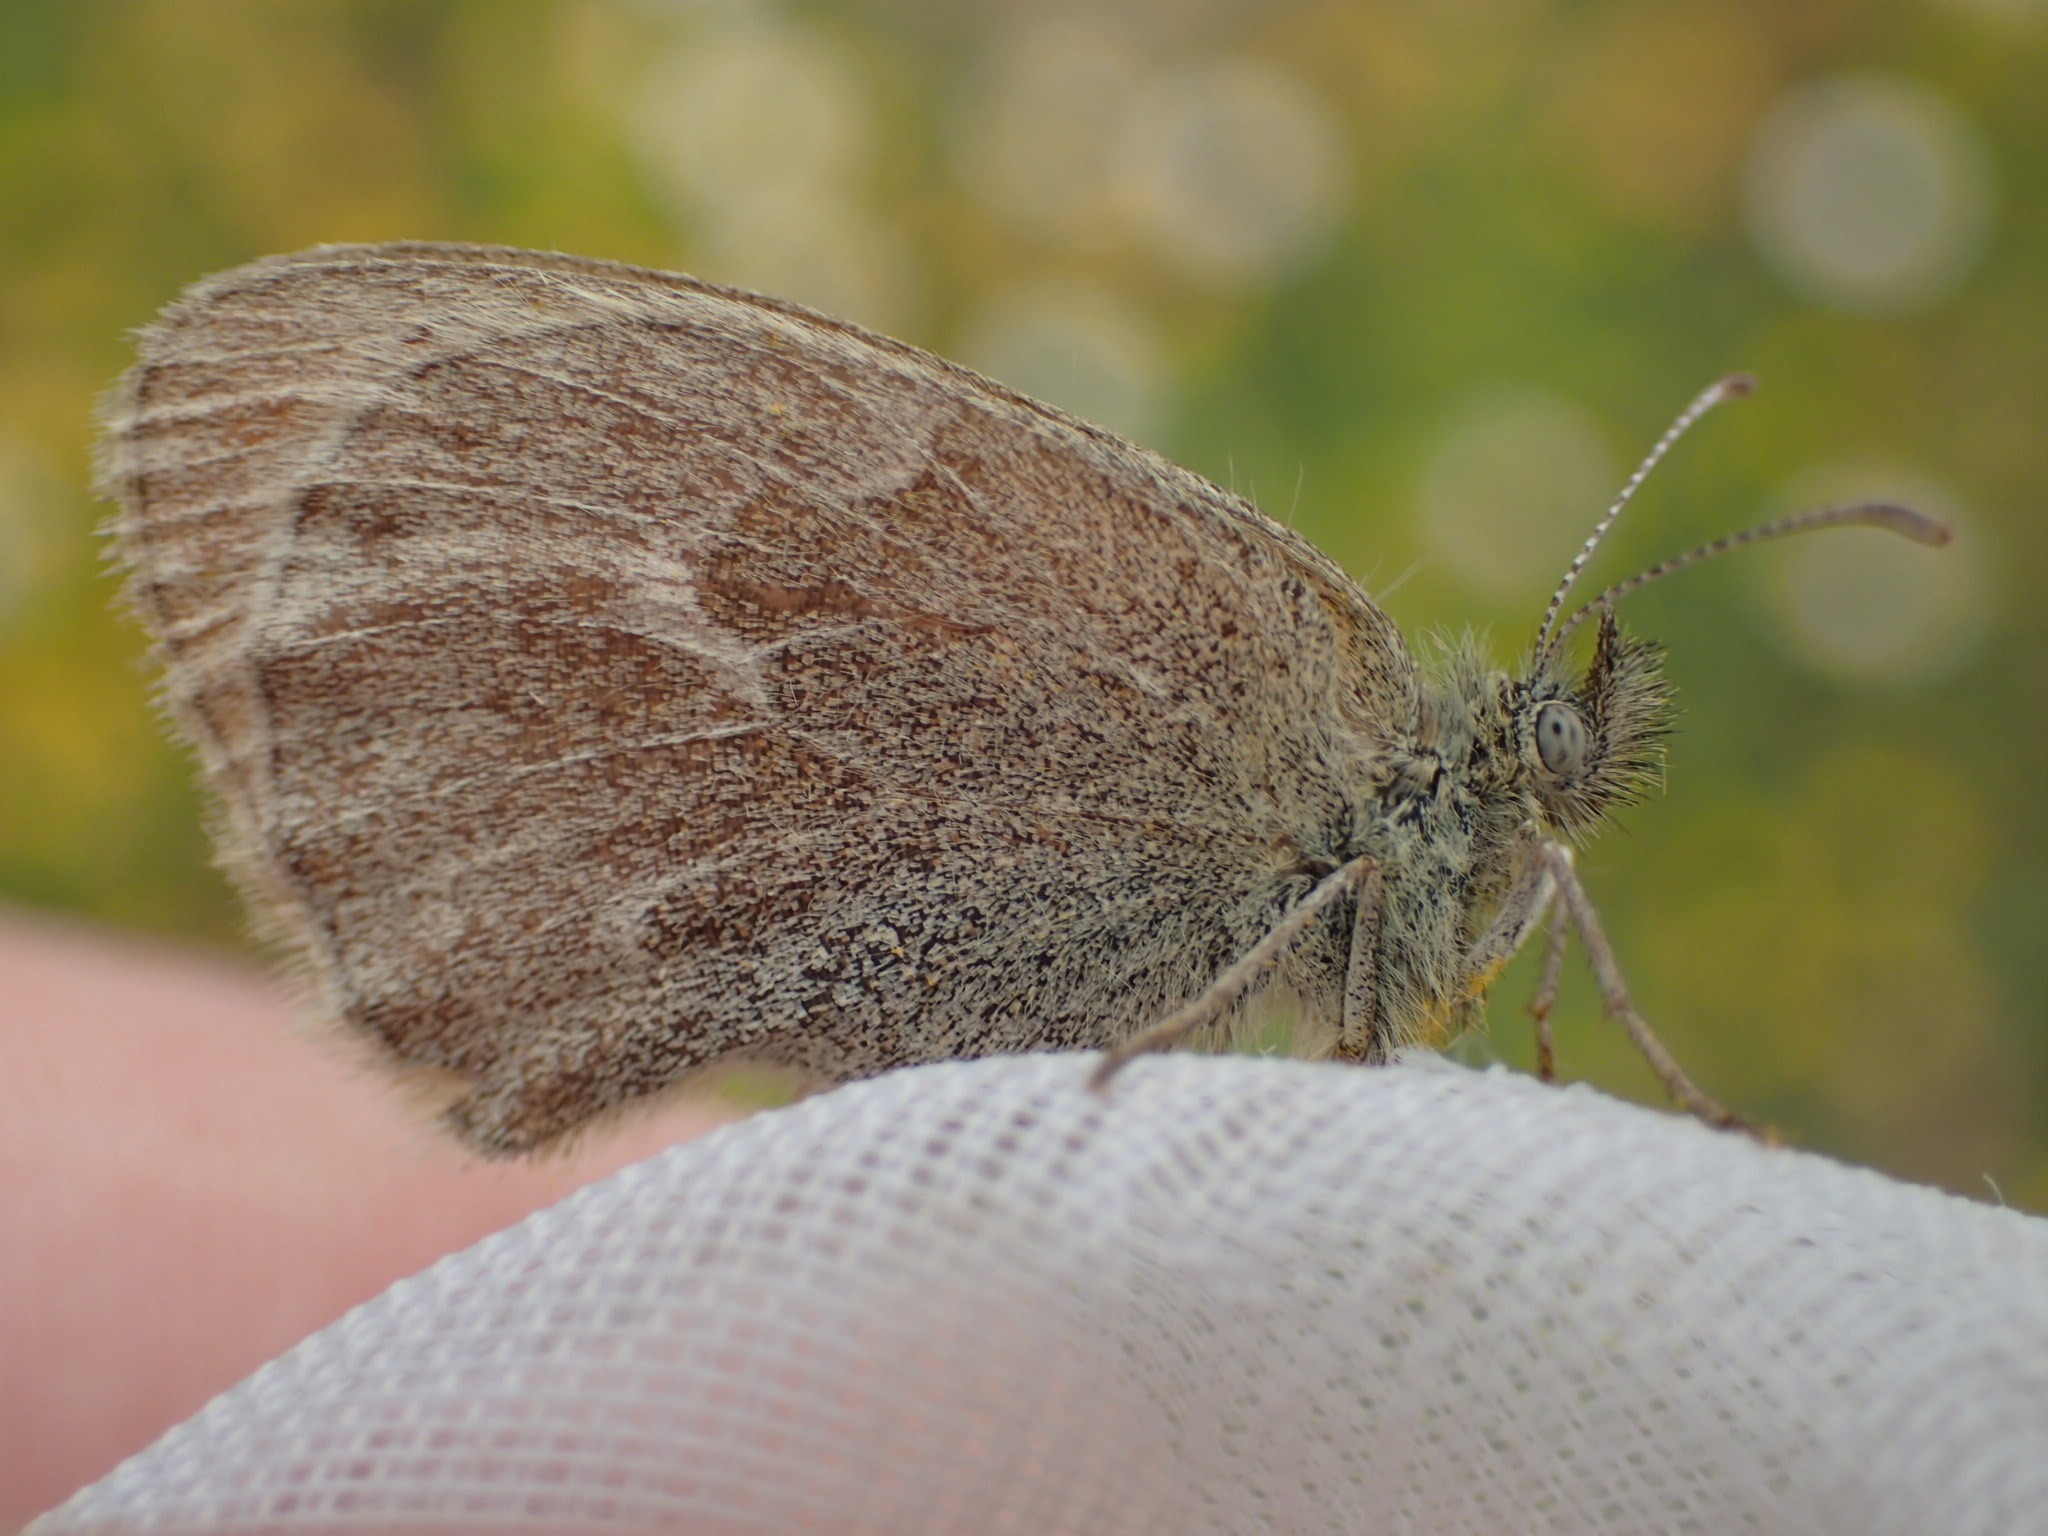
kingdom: Animalia
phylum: Arthropoda
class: Insecta
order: Lepidoptera
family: Nymphalidae
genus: Coenonympha
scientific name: Coenonympha california
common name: Common ringlet
